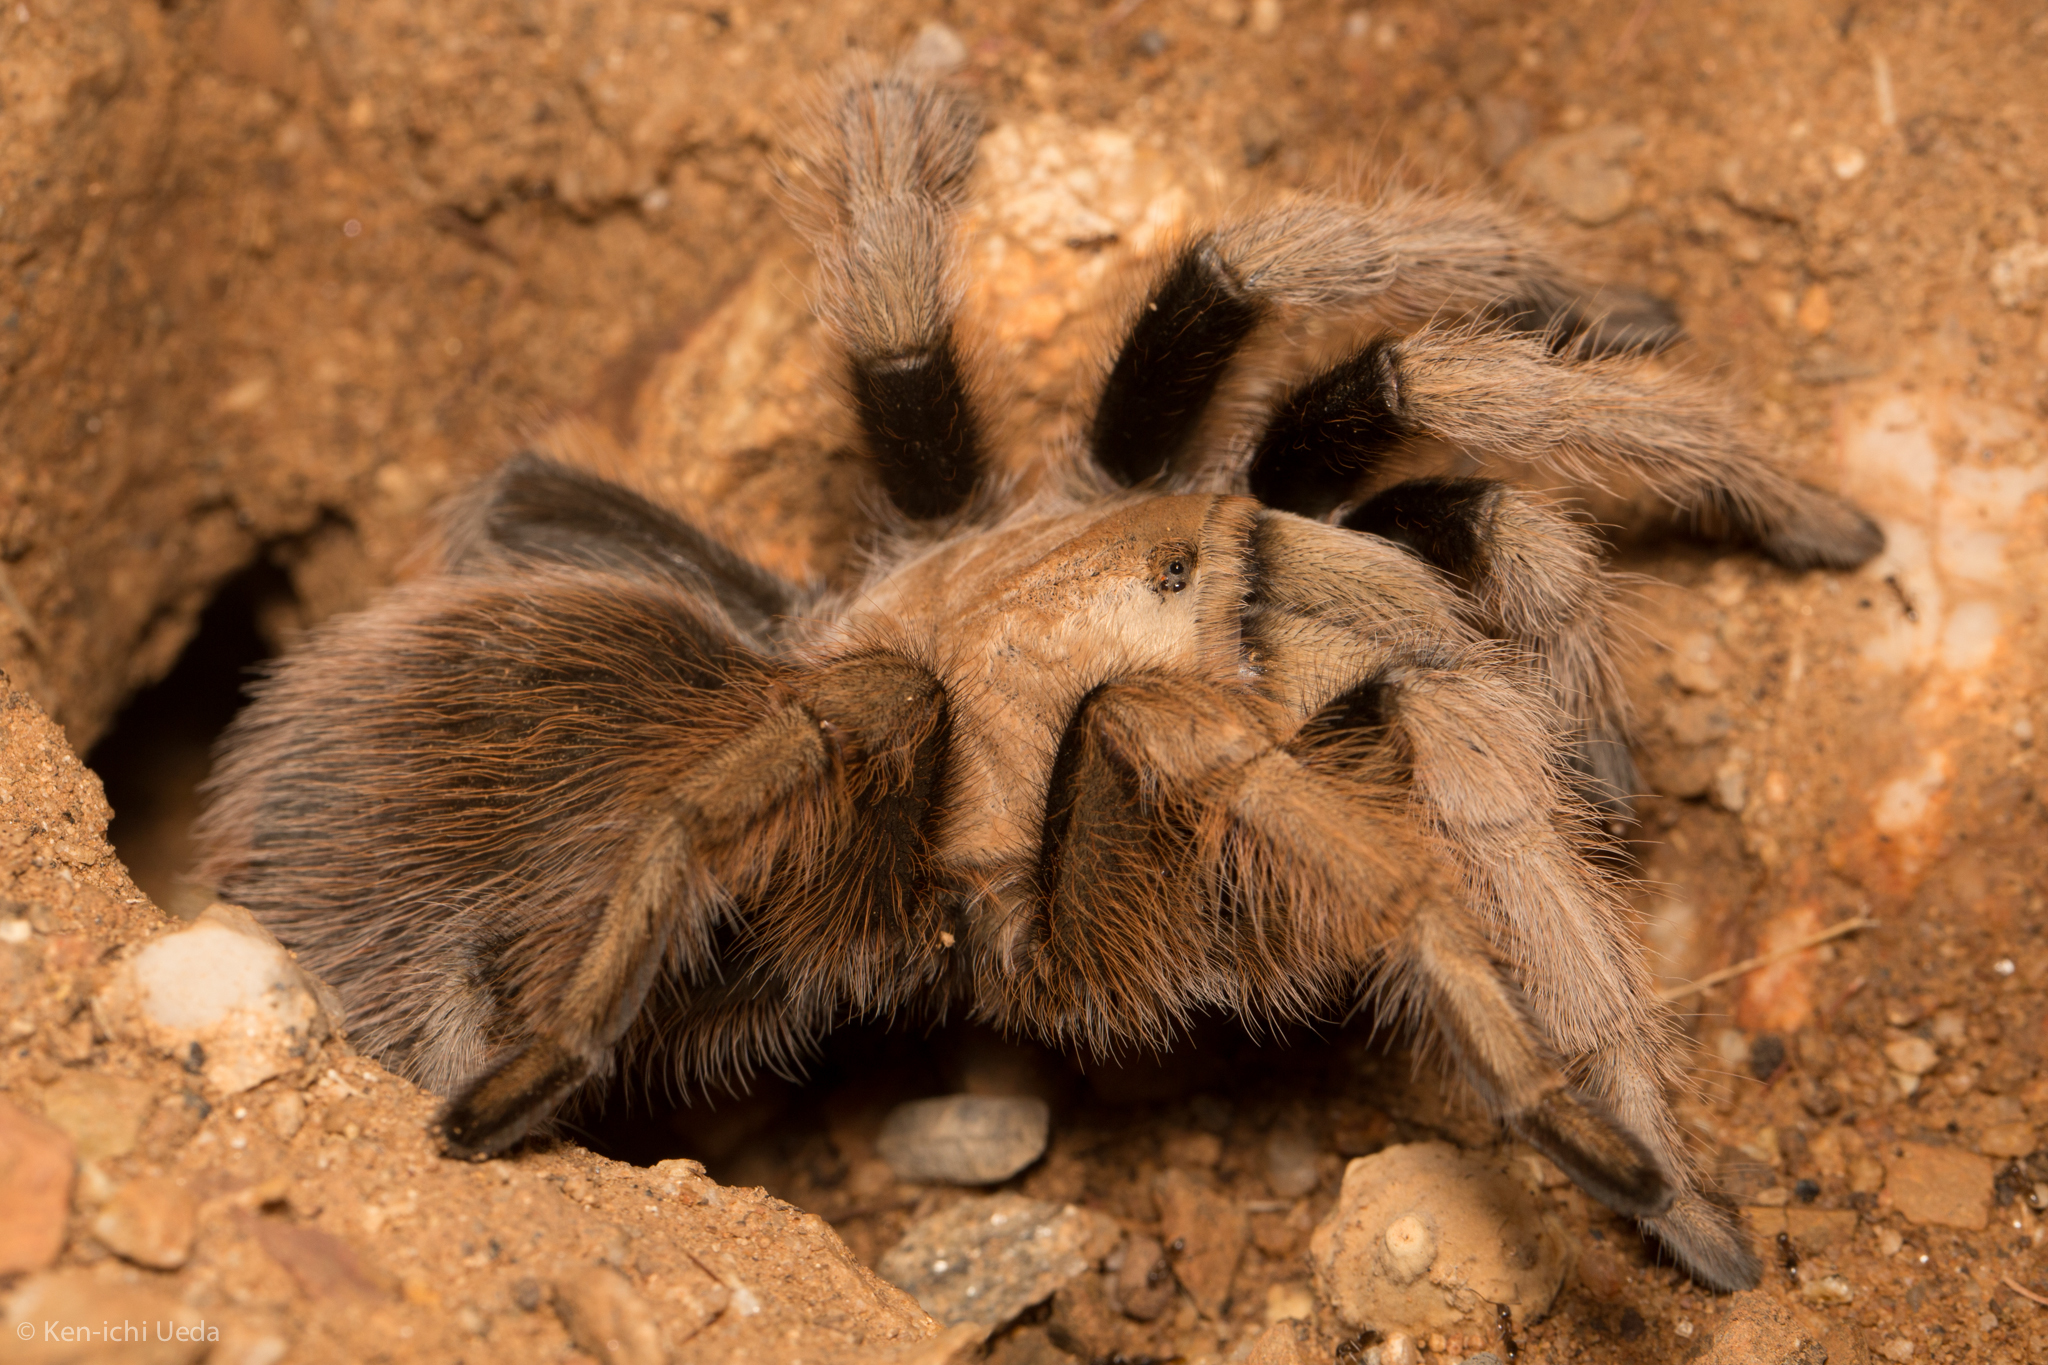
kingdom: Animalia
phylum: Arthropoda
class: Arachnida
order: Araneae
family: Theraphosidae
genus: Aphonopelma
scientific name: Aphonopelma chalcodes
